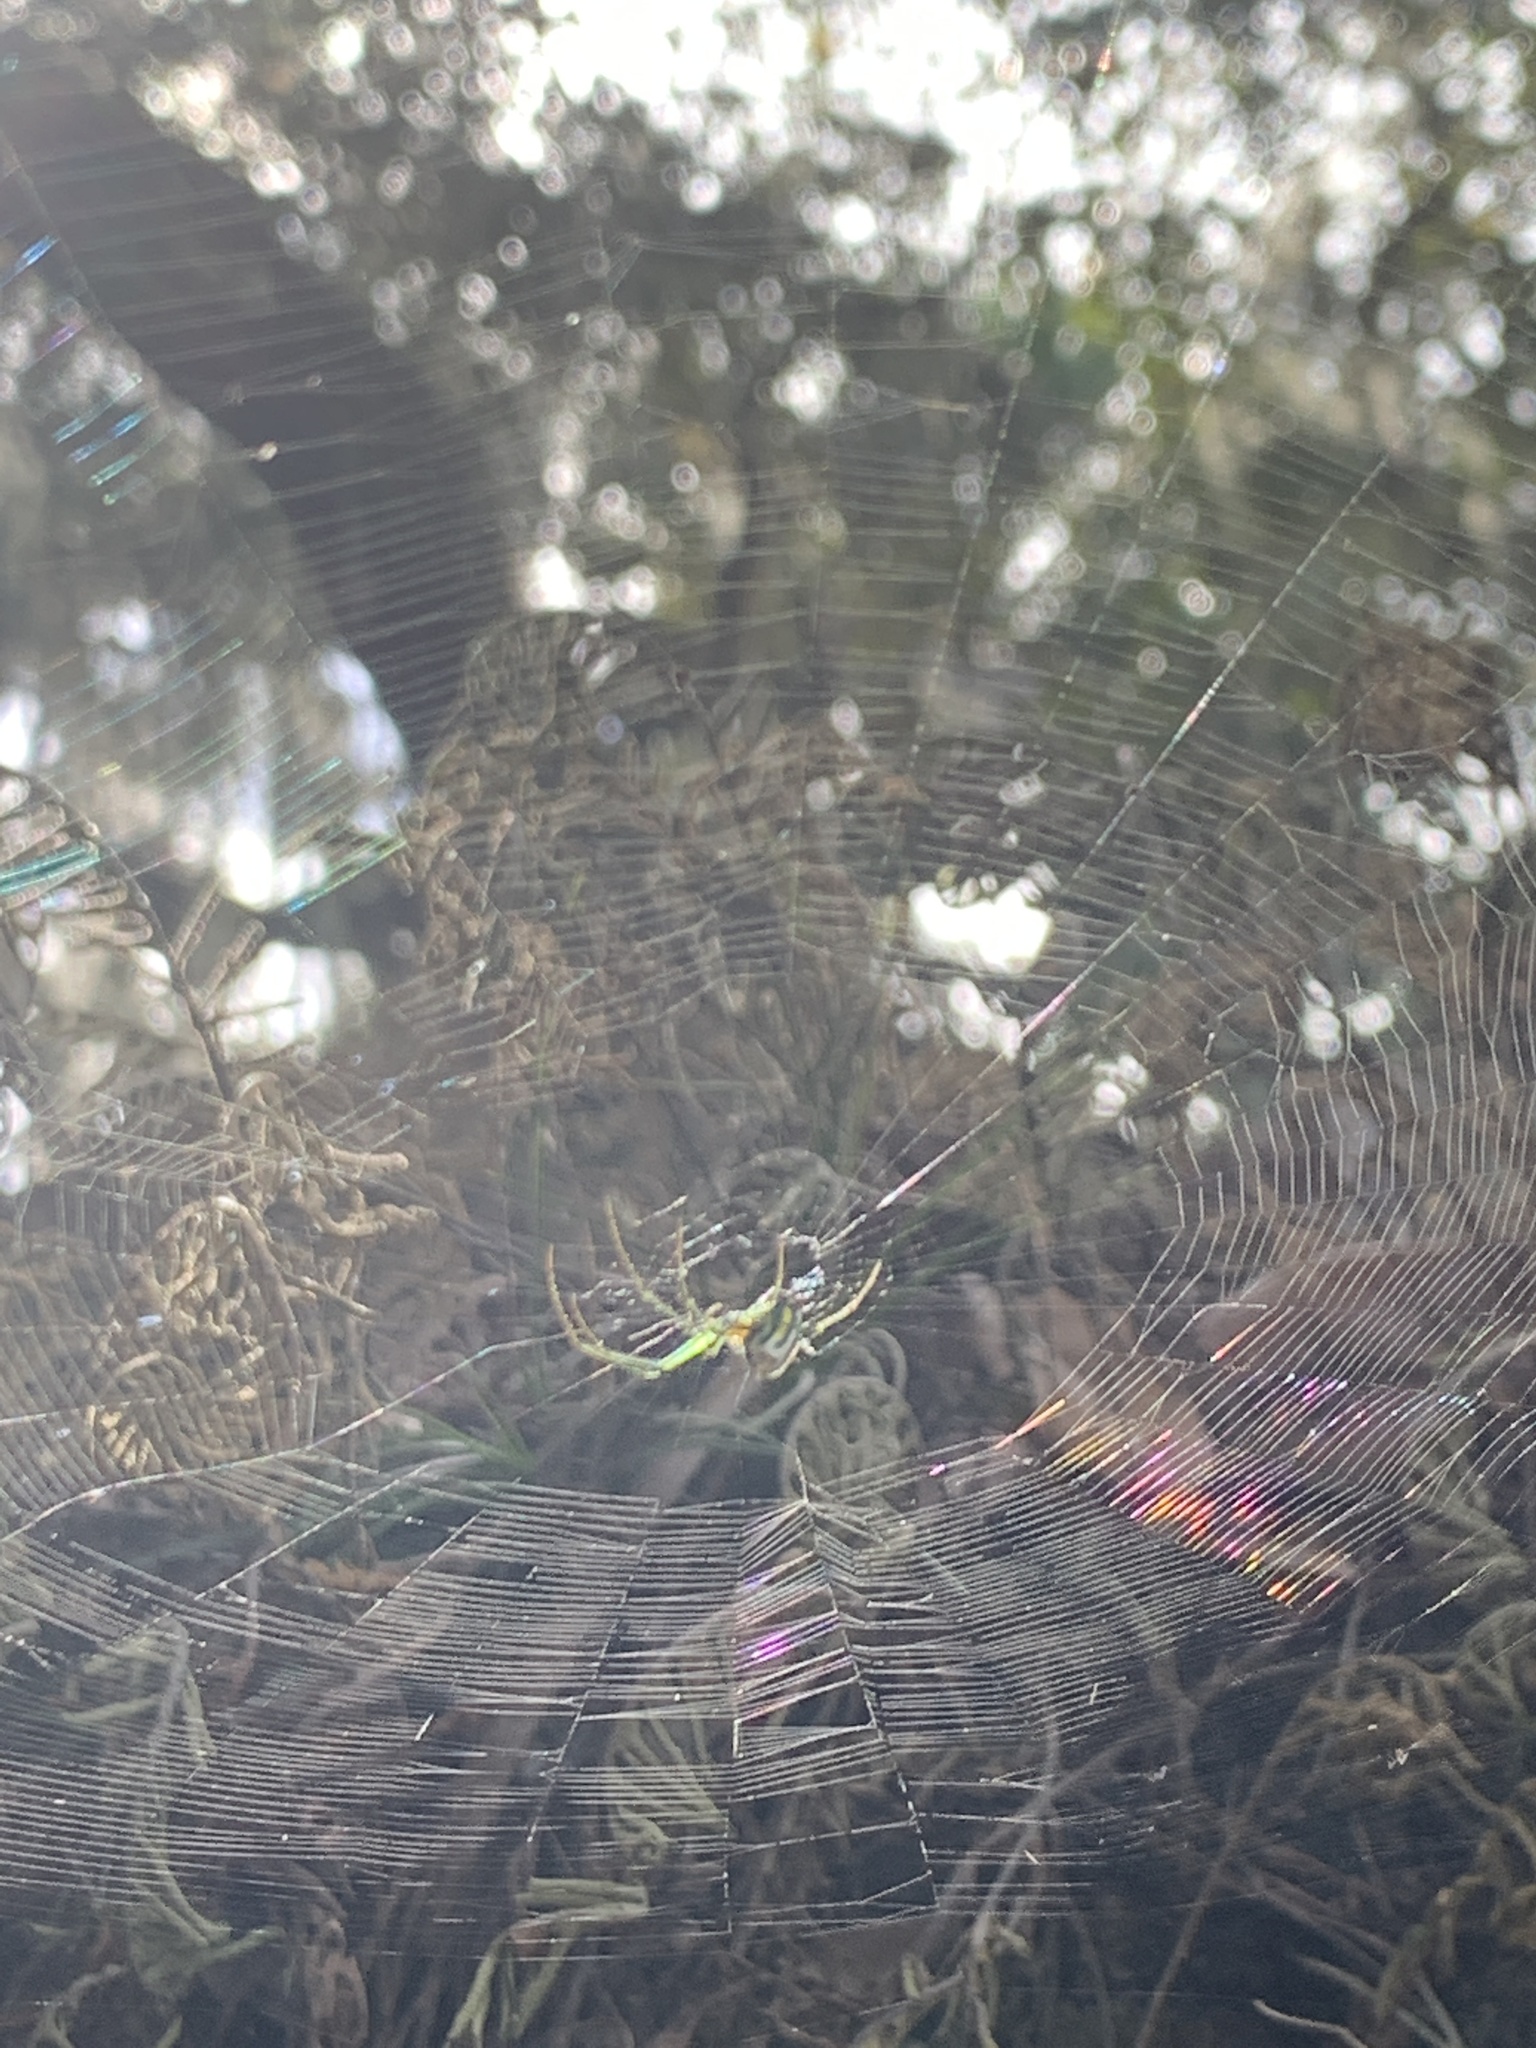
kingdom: Animalia
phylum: Arthropoda
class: Arachnida
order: Araneae
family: Tetragnathidae
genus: Leucauge
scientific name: Leucauge argyra
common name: Longjawed orb weavers
